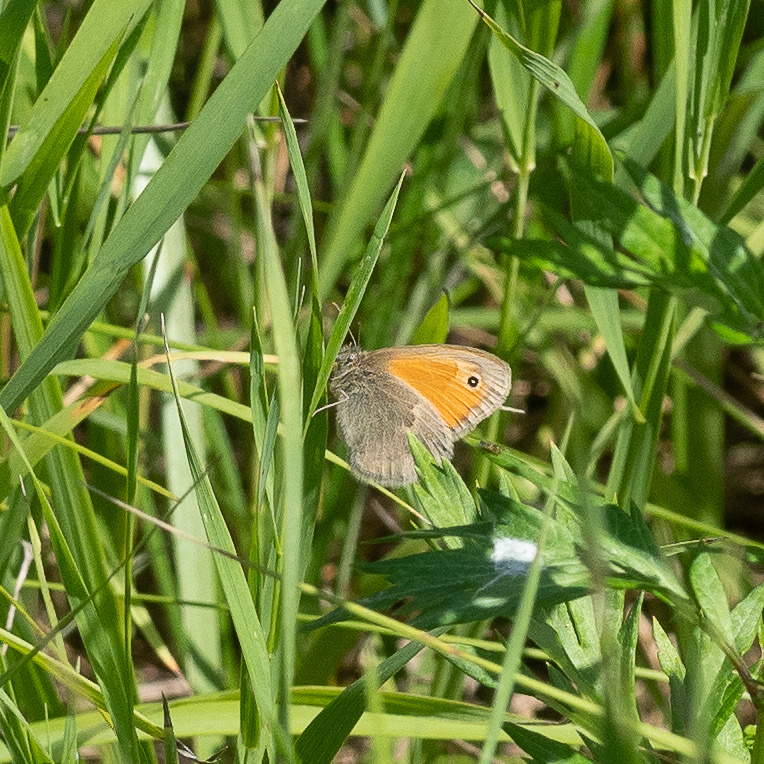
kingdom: Animalia
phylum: Arthropoda
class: Insecta
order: Lepidoptera
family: Nymphalidae
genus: Coenonympha
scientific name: Coenonympha pamphilus
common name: Small heath
